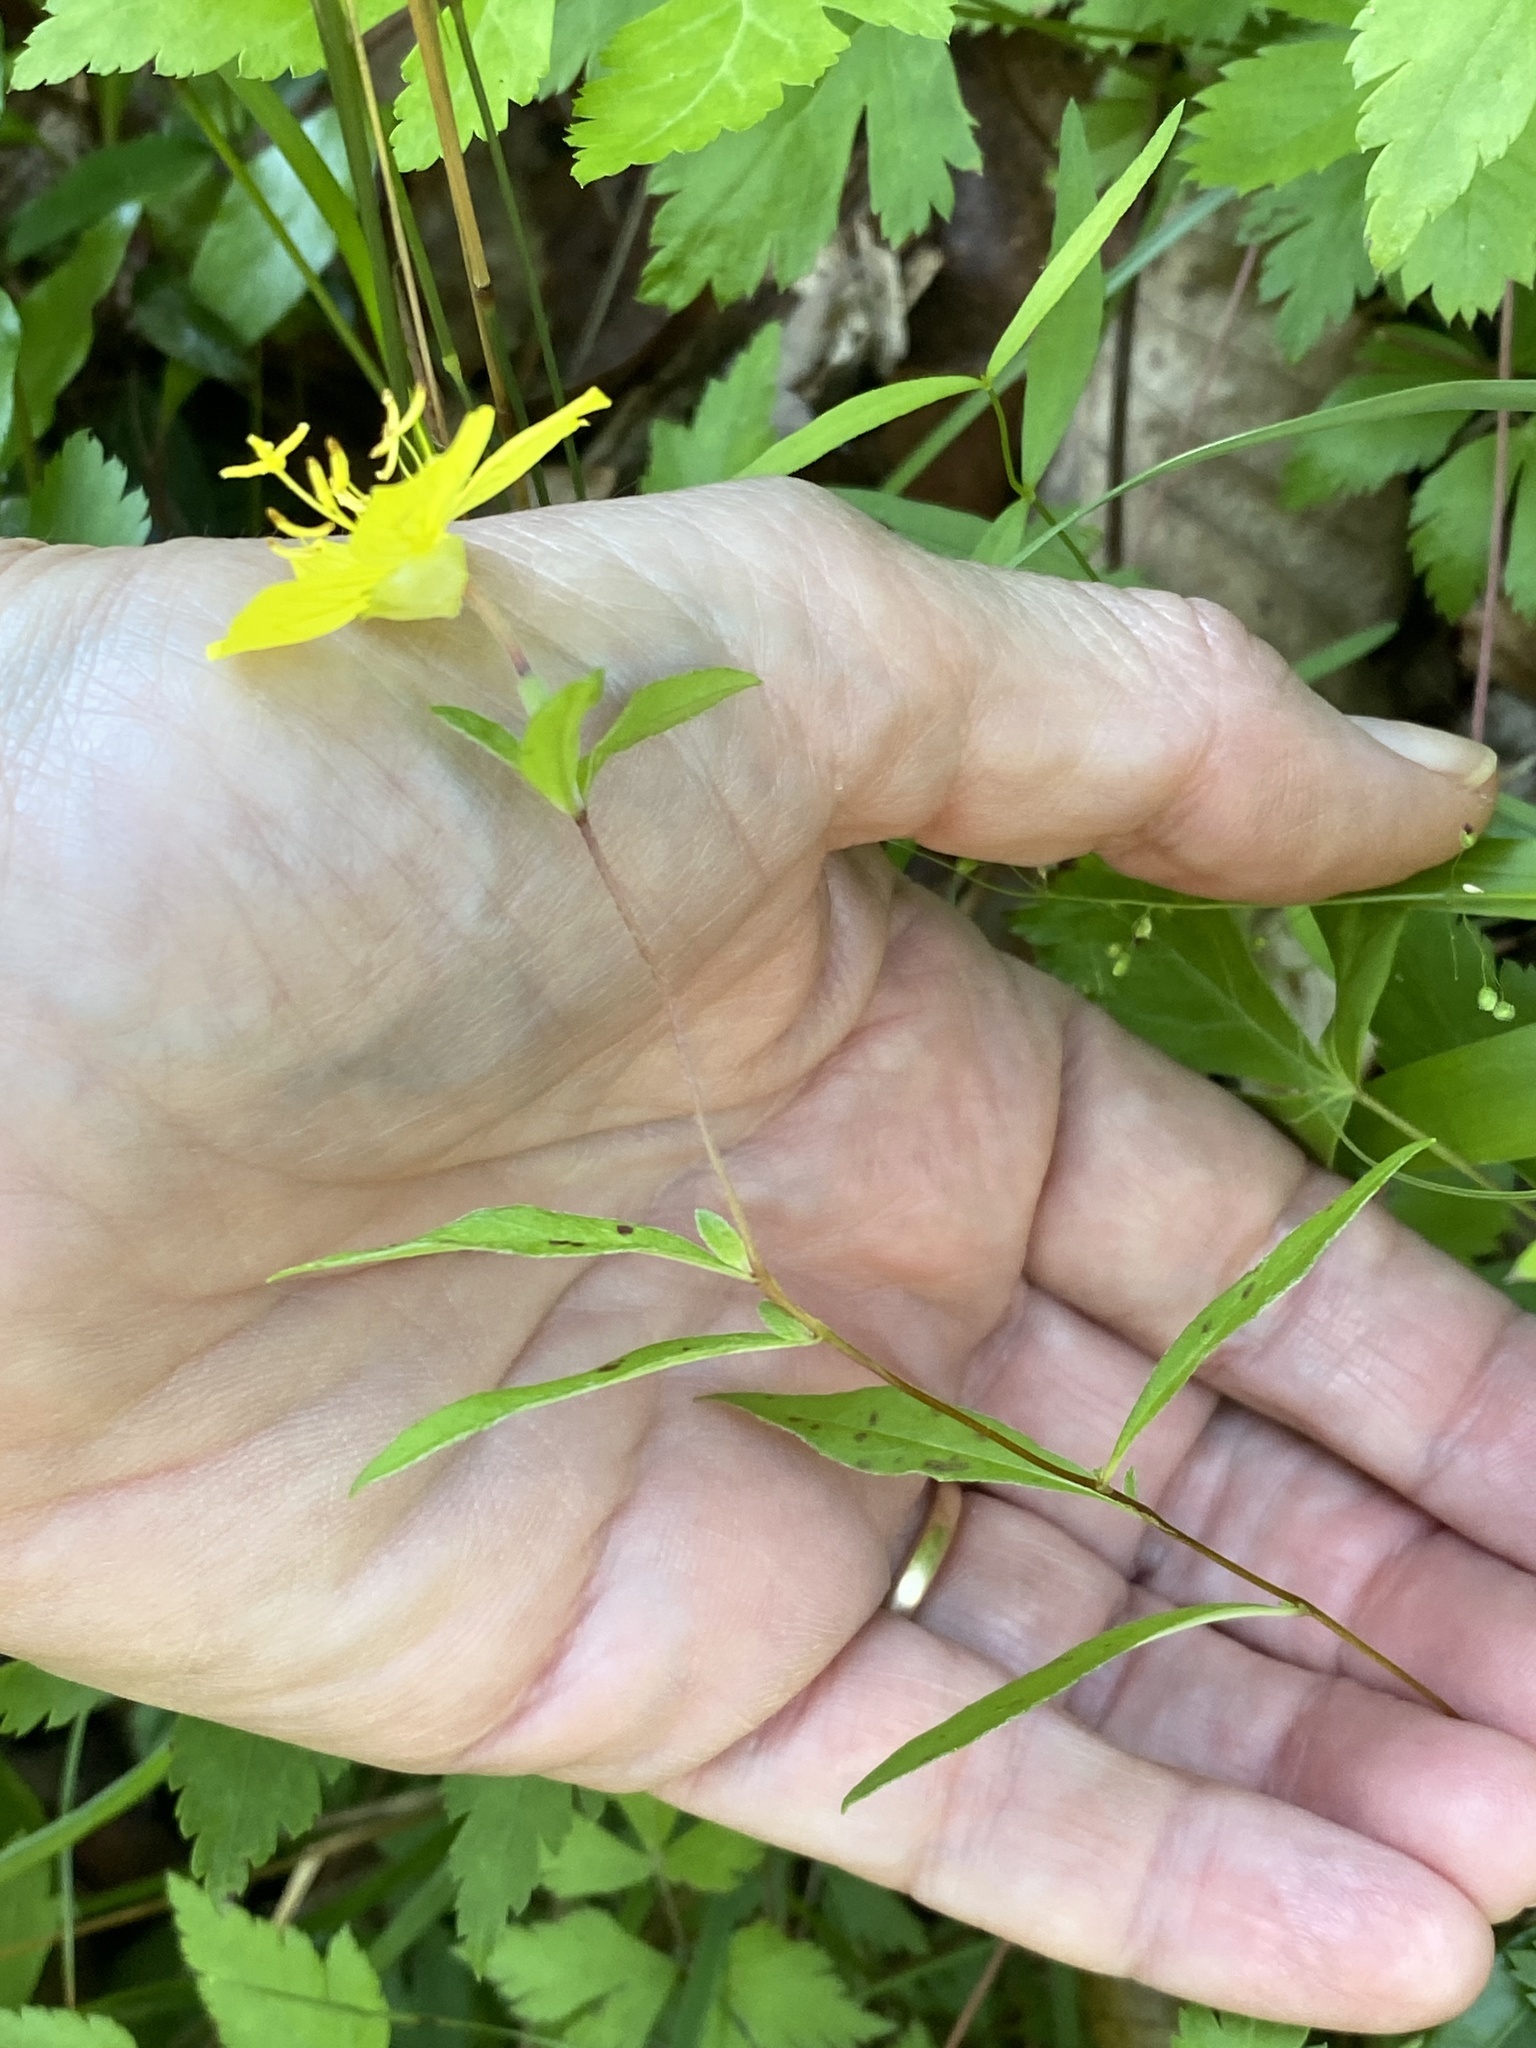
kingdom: Plantae
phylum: Tracheophyta
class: Magnoliopsida
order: Myrtales
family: Onagraceae
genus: Oenothera
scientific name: Oenothera fruticosa
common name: Southern sundrops
